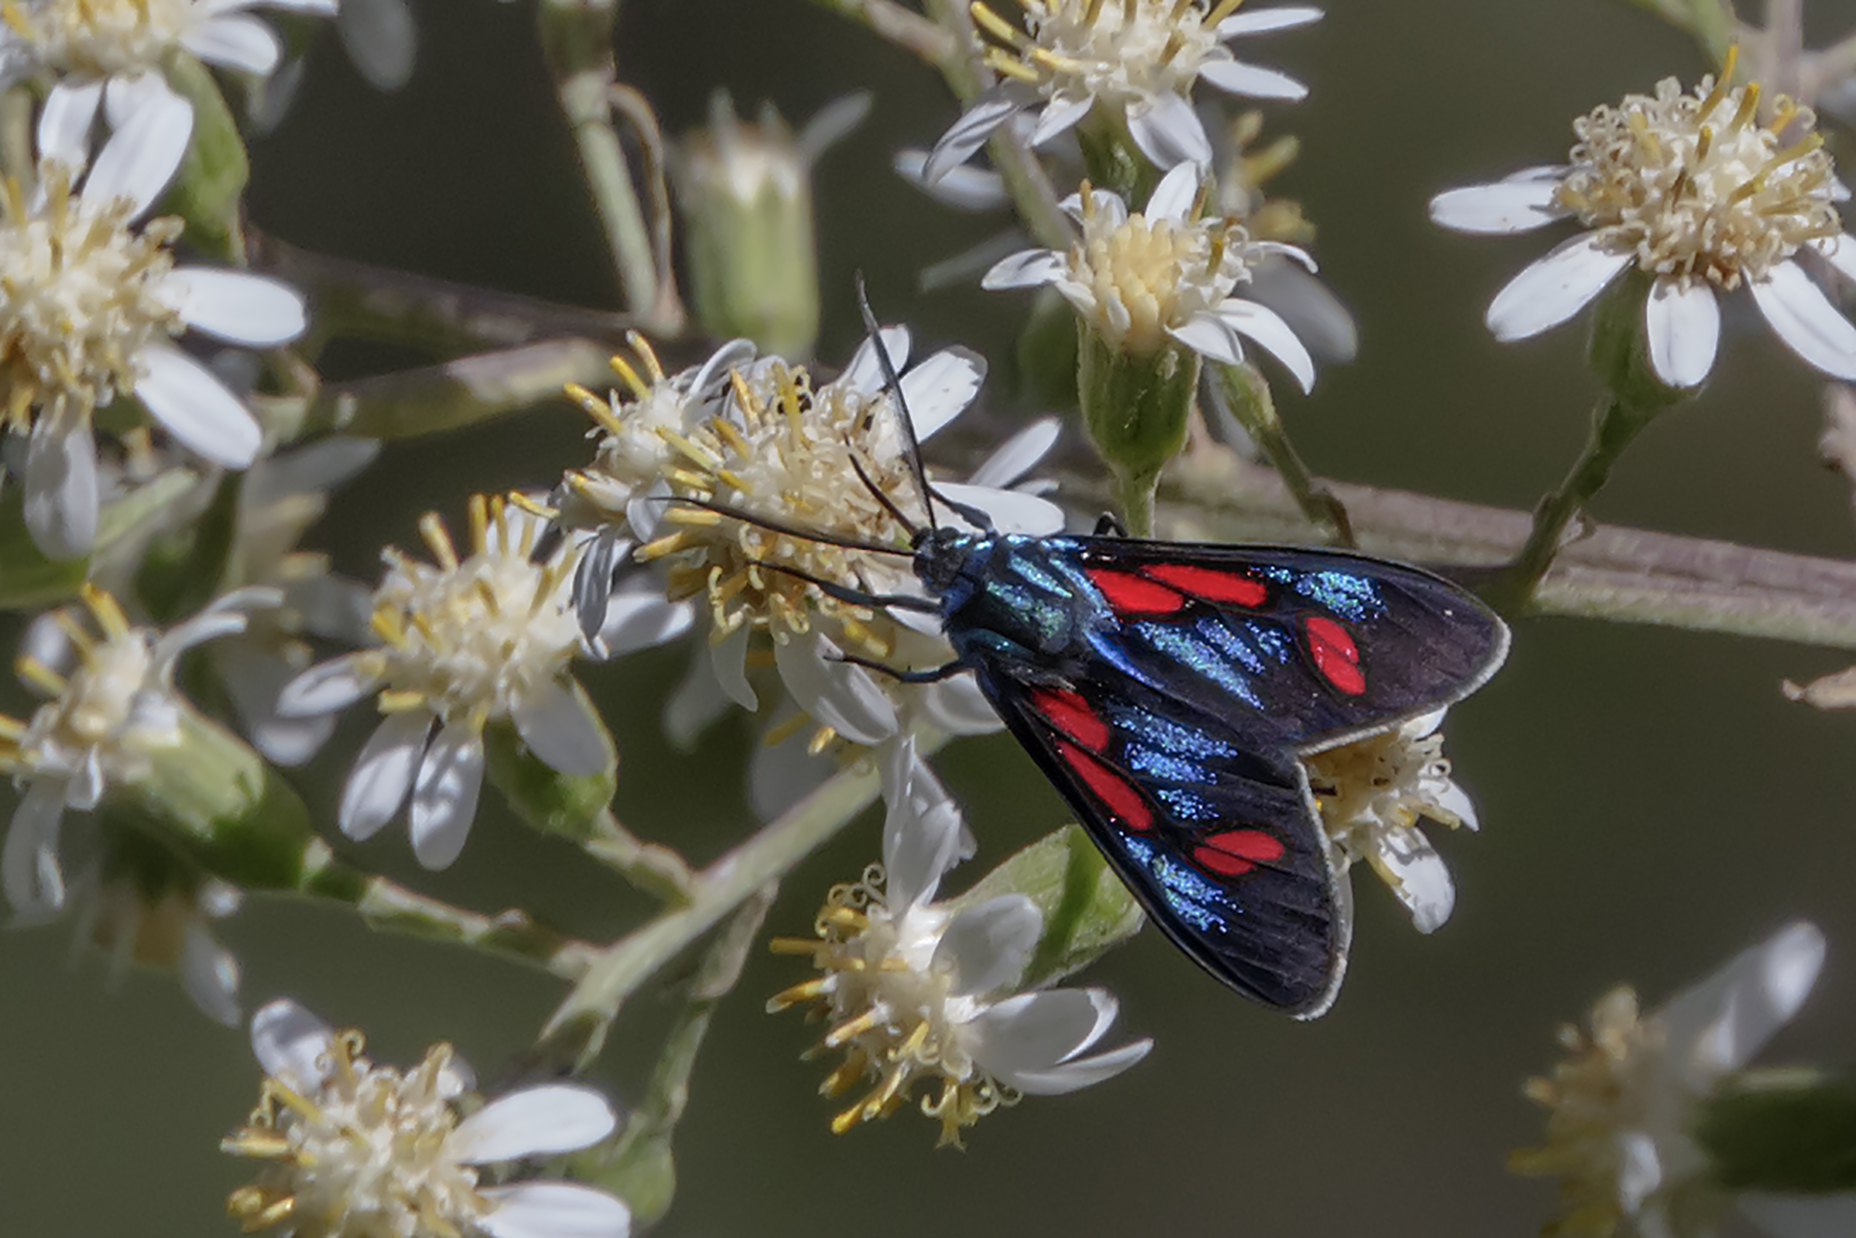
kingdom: Animalia
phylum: Arthropoda
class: Insecta
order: Lepidoptera
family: Erebidae
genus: Cyanopepla
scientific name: Cyanopepla pretiosa
